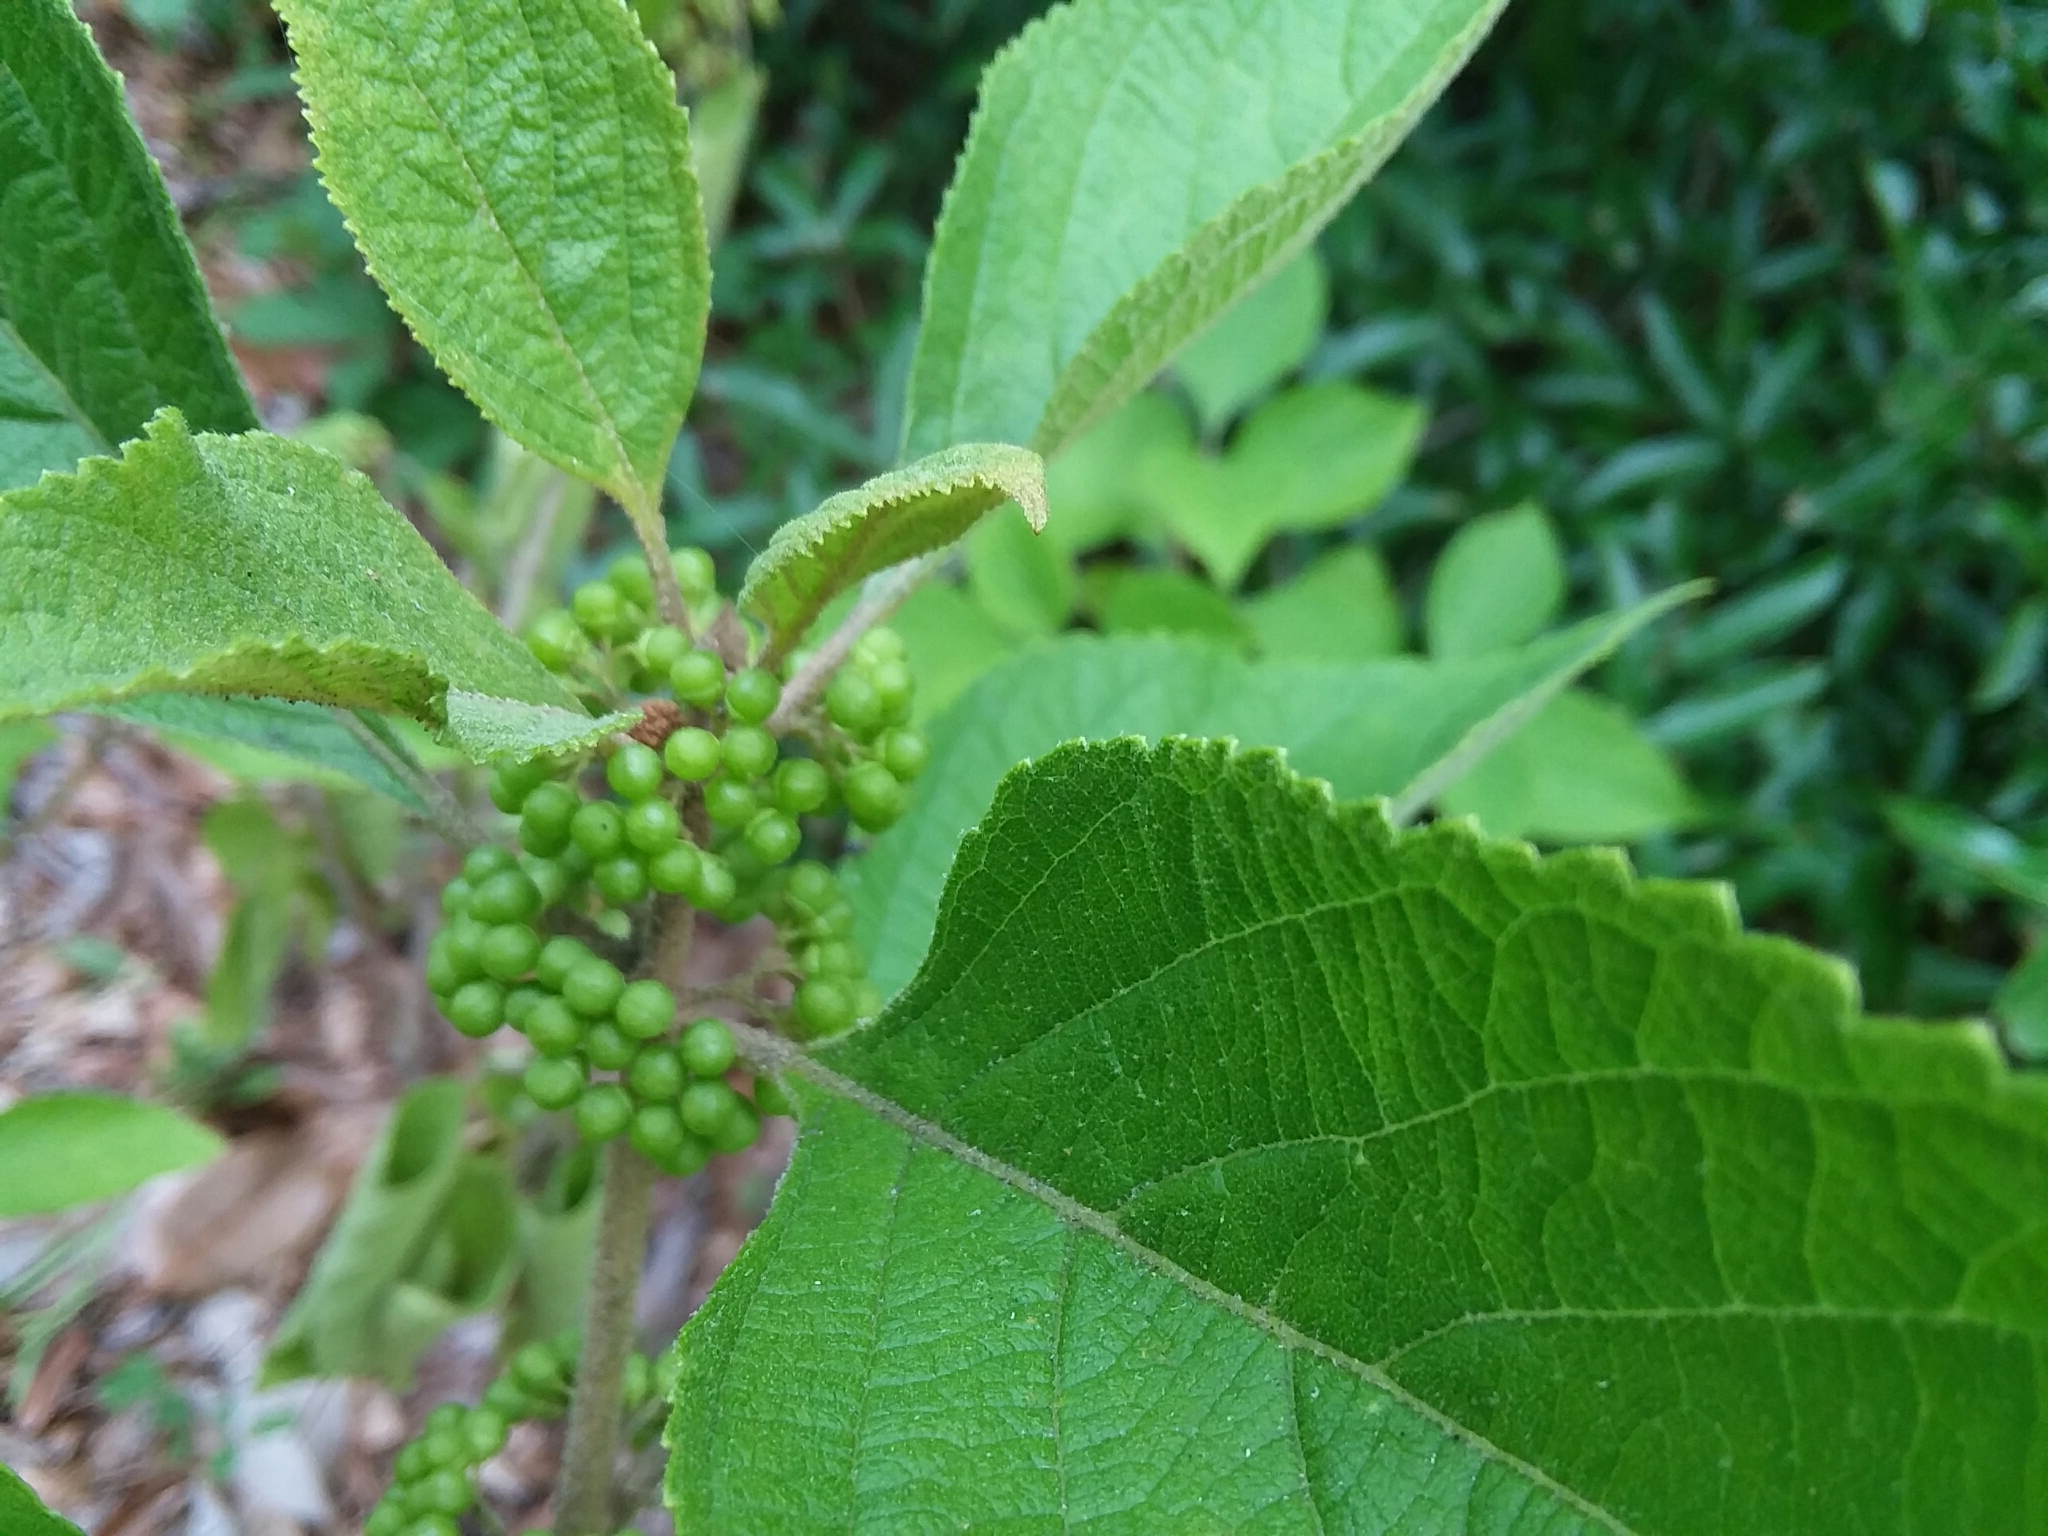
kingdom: Plantae
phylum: Tracheophyta
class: Magnoliopsida
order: Lamiales
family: Lamiaceae
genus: Callicarpa
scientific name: Callicarpa americana
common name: American beautyberry
